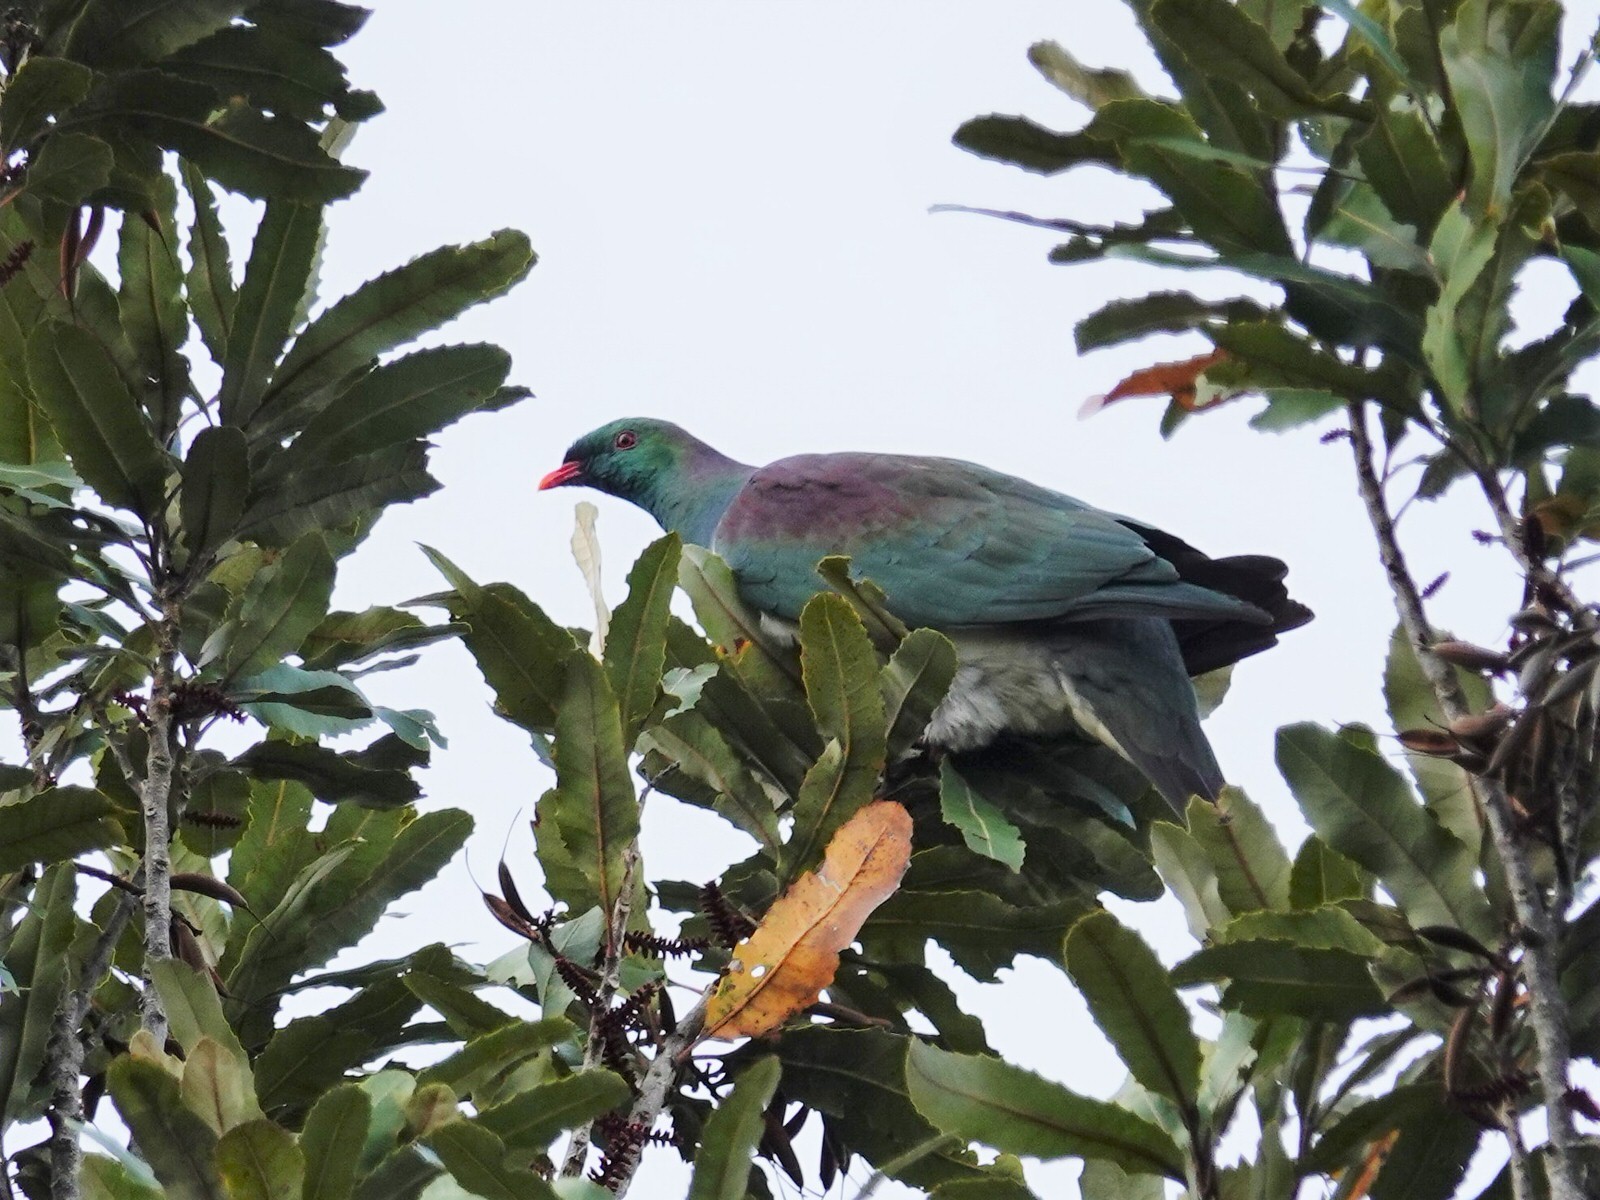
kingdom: Animalia
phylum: Chordata
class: Aves
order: Columbiformes
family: Columbidae
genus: Hemiphaga
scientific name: Hemiphaga novaeseelandiae
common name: New zealand pigeon
